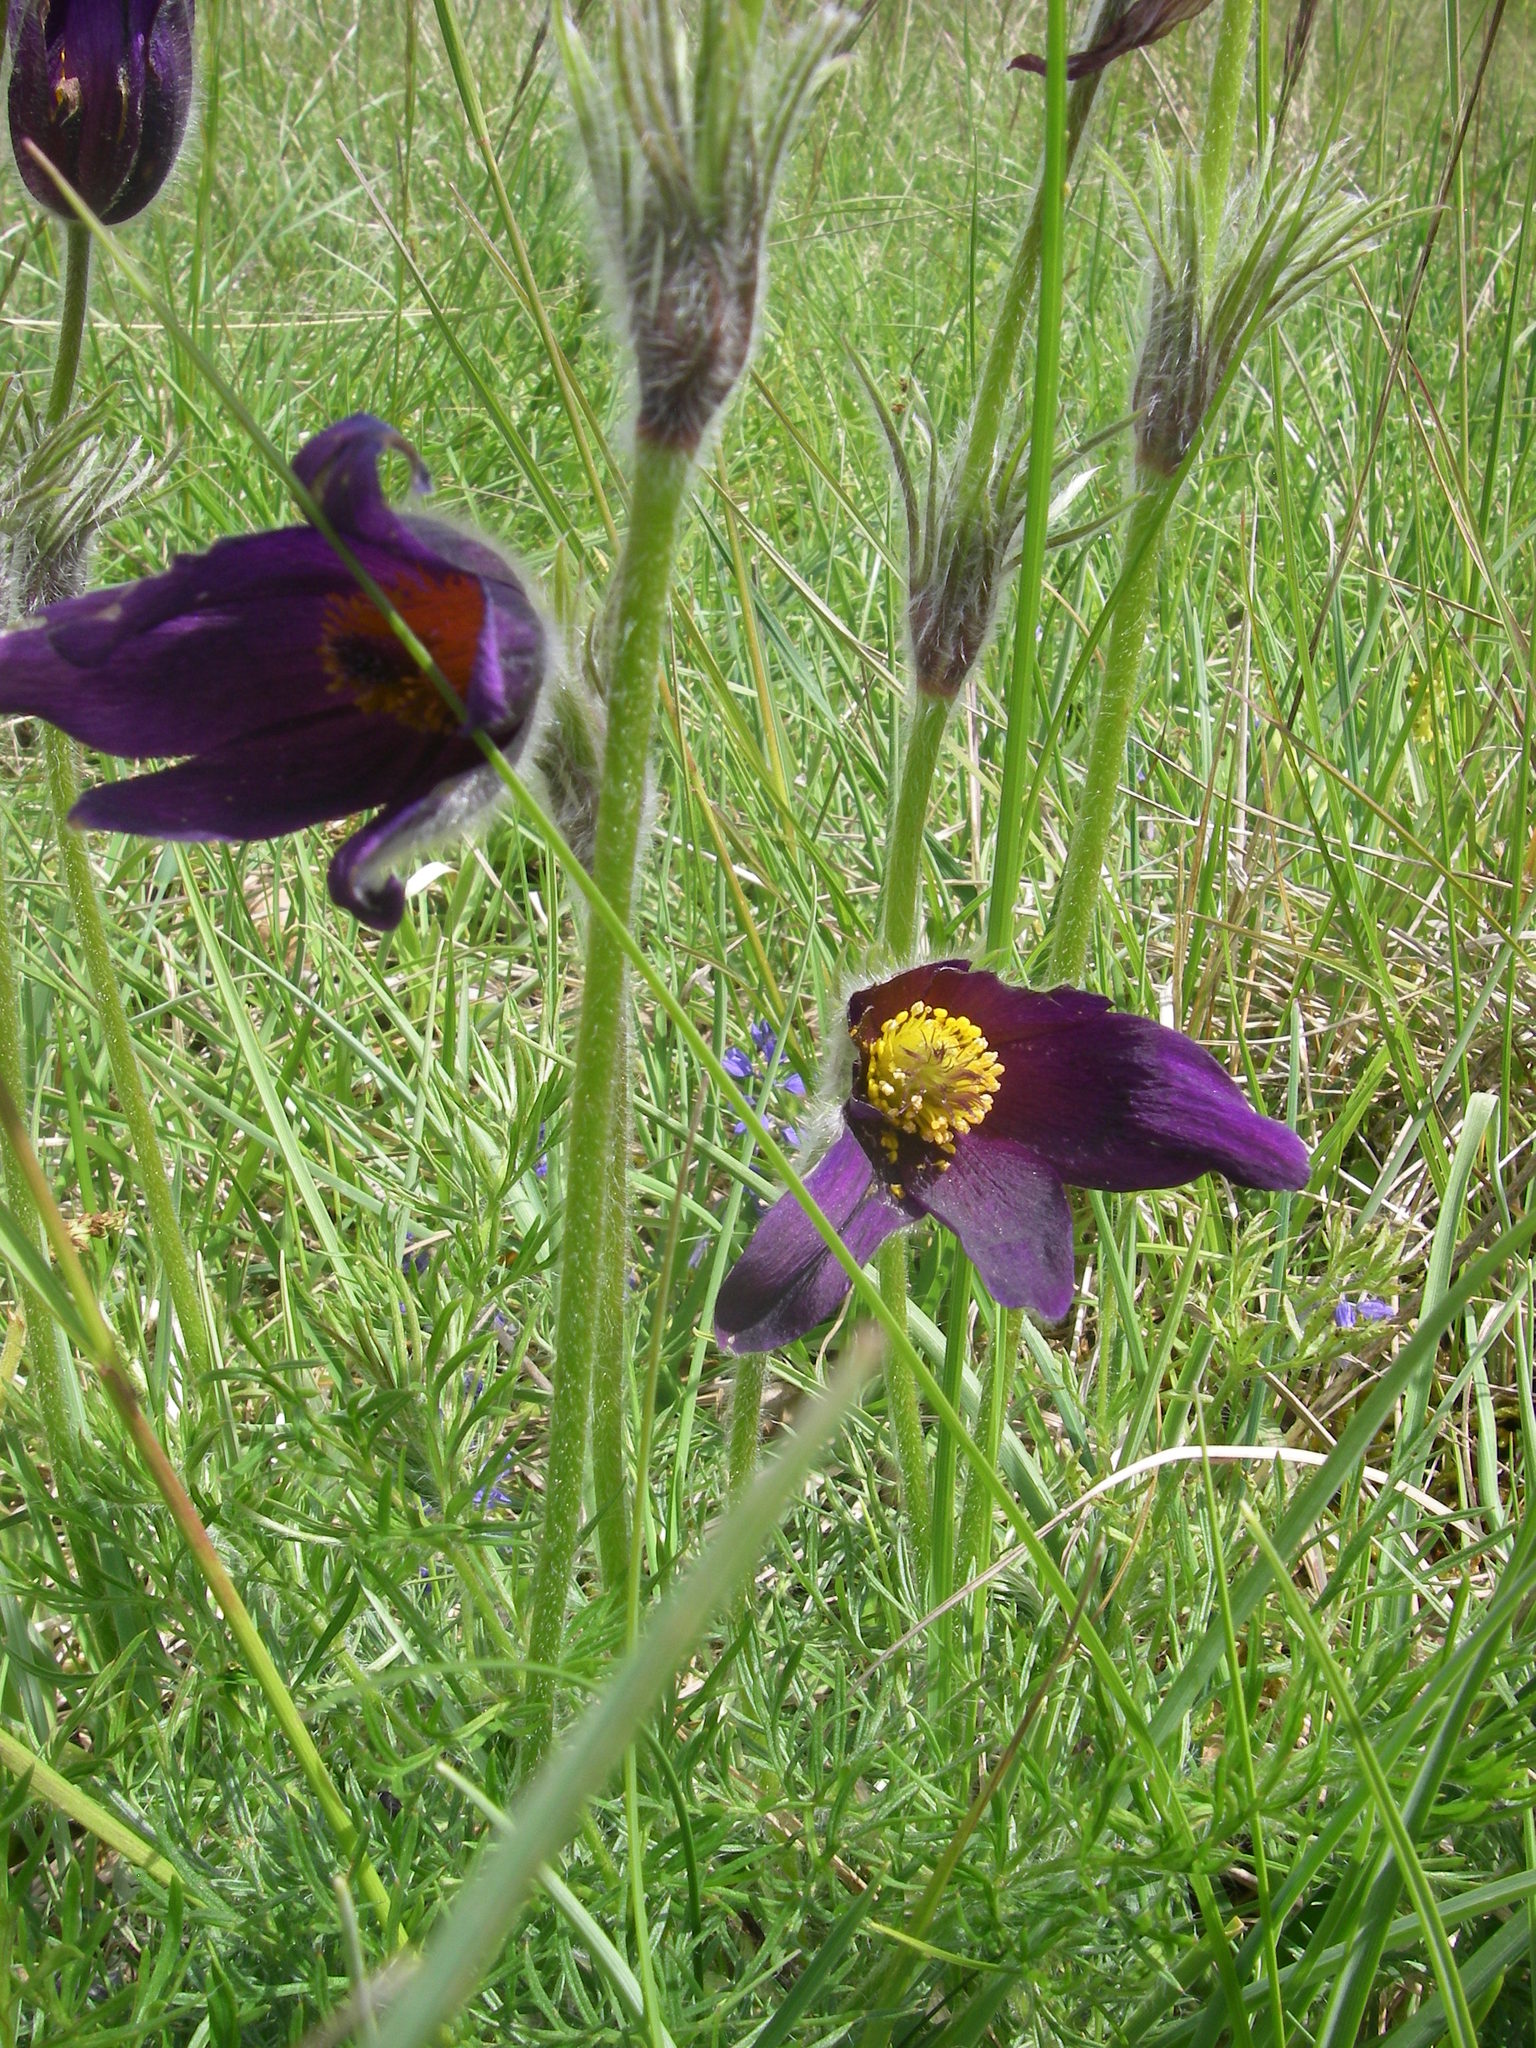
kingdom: Plantae
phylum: Tracheophyta
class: Magnoliopsida
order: Ranunculales
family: Ranunculaceae
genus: Pulsatilla
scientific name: Pulsatilla vulgaris
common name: Pasqueflower
